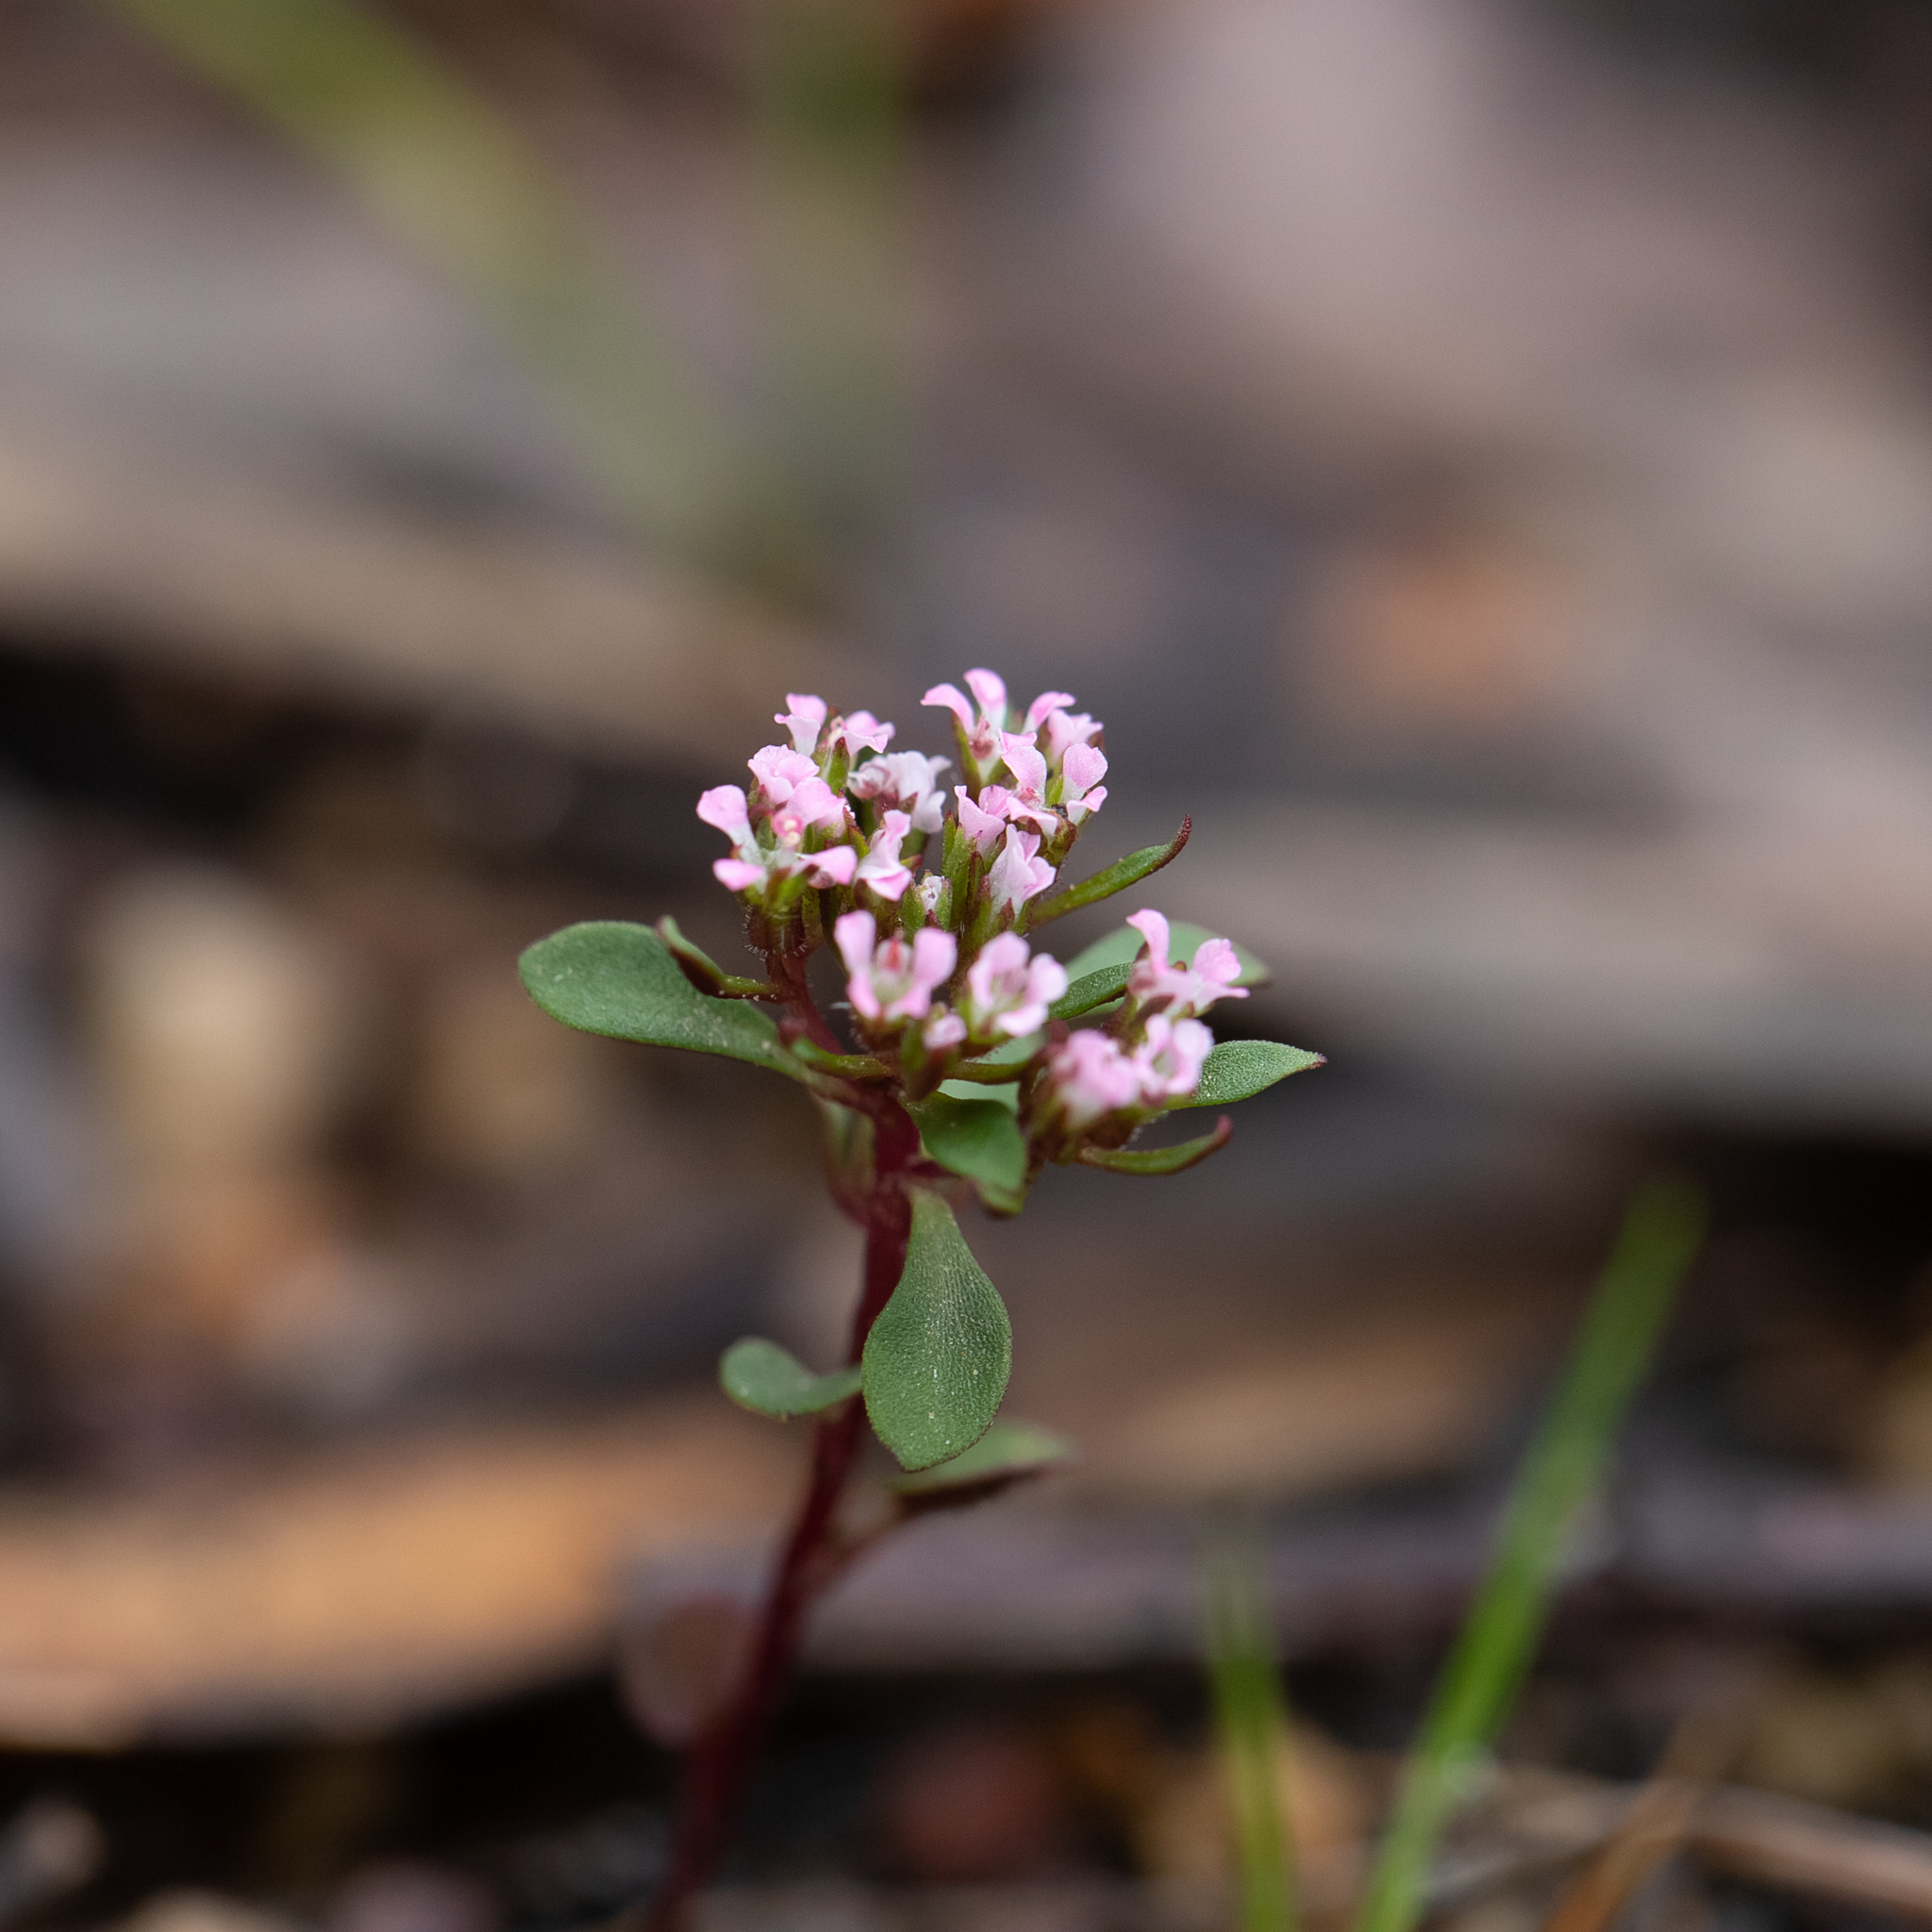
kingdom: Plantae
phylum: Tracheophyta
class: Magnoliopsida
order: Asterales
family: Stylidiaceae
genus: Levenhookia
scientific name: Levenhookia pusilla
